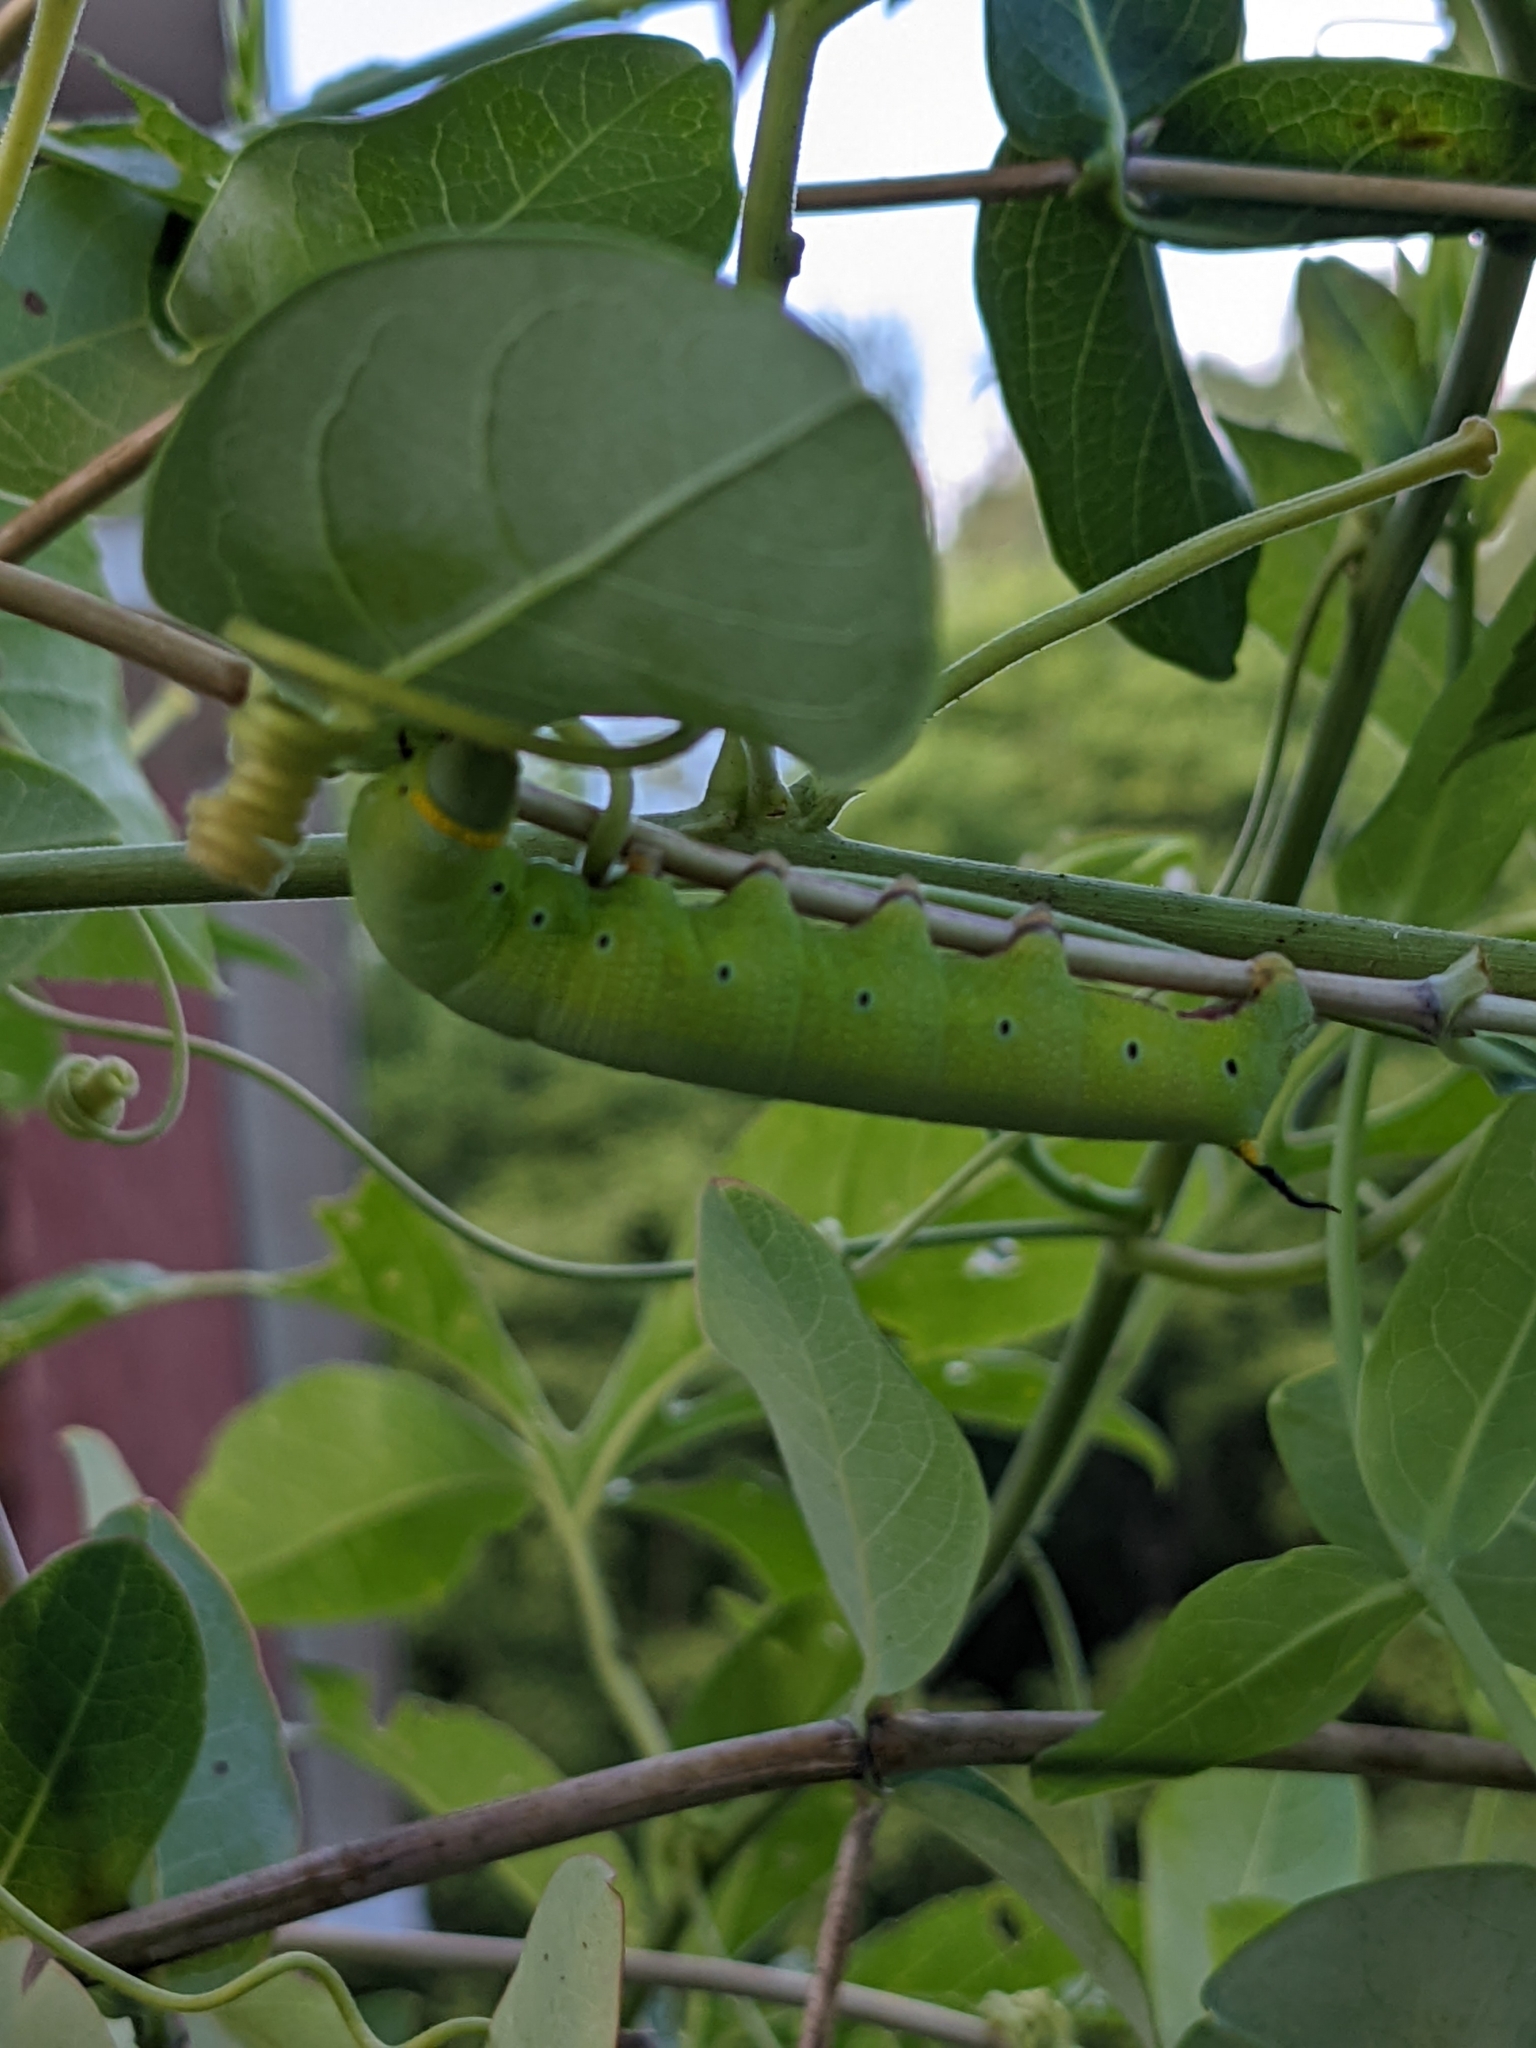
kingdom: Animalia
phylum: Arthropoda
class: Insecta
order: Lepidoptera
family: Sphingidae
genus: Hemaris
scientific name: Hemaris diffinis
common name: Bumblebee moth
